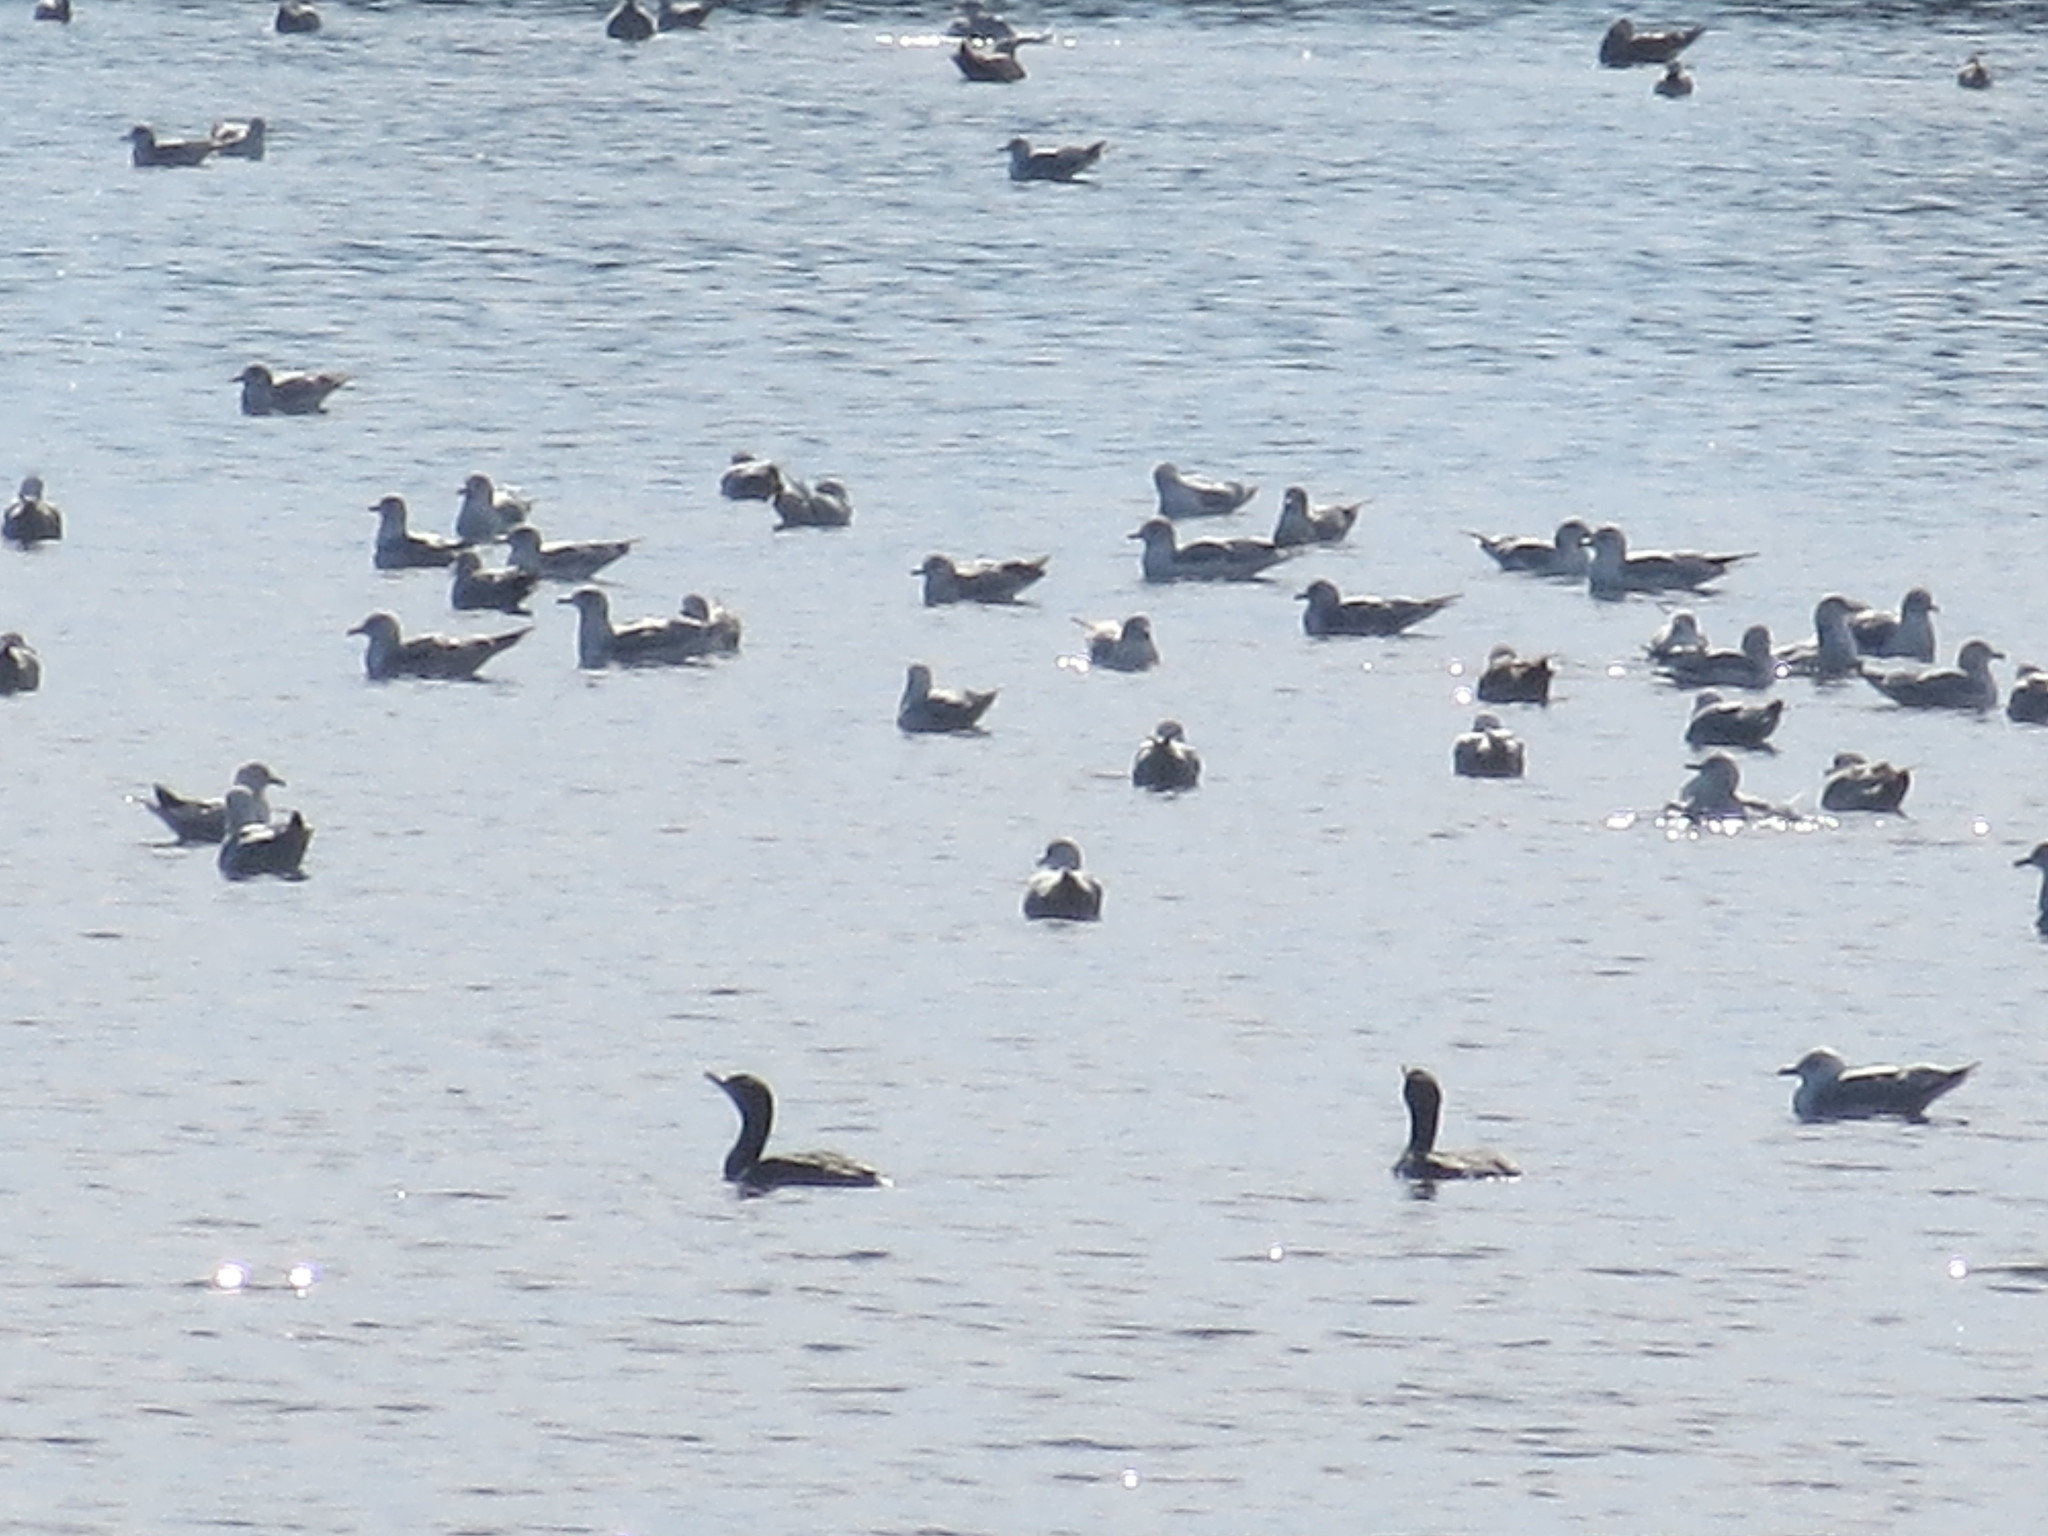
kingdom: Animalia
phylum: Chordata
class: Aves
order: Suliformes
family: Phalacrocoracidae
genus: Phalacrocorax
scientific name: Phalacrocorax auritus
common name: Double-crested cormorant
